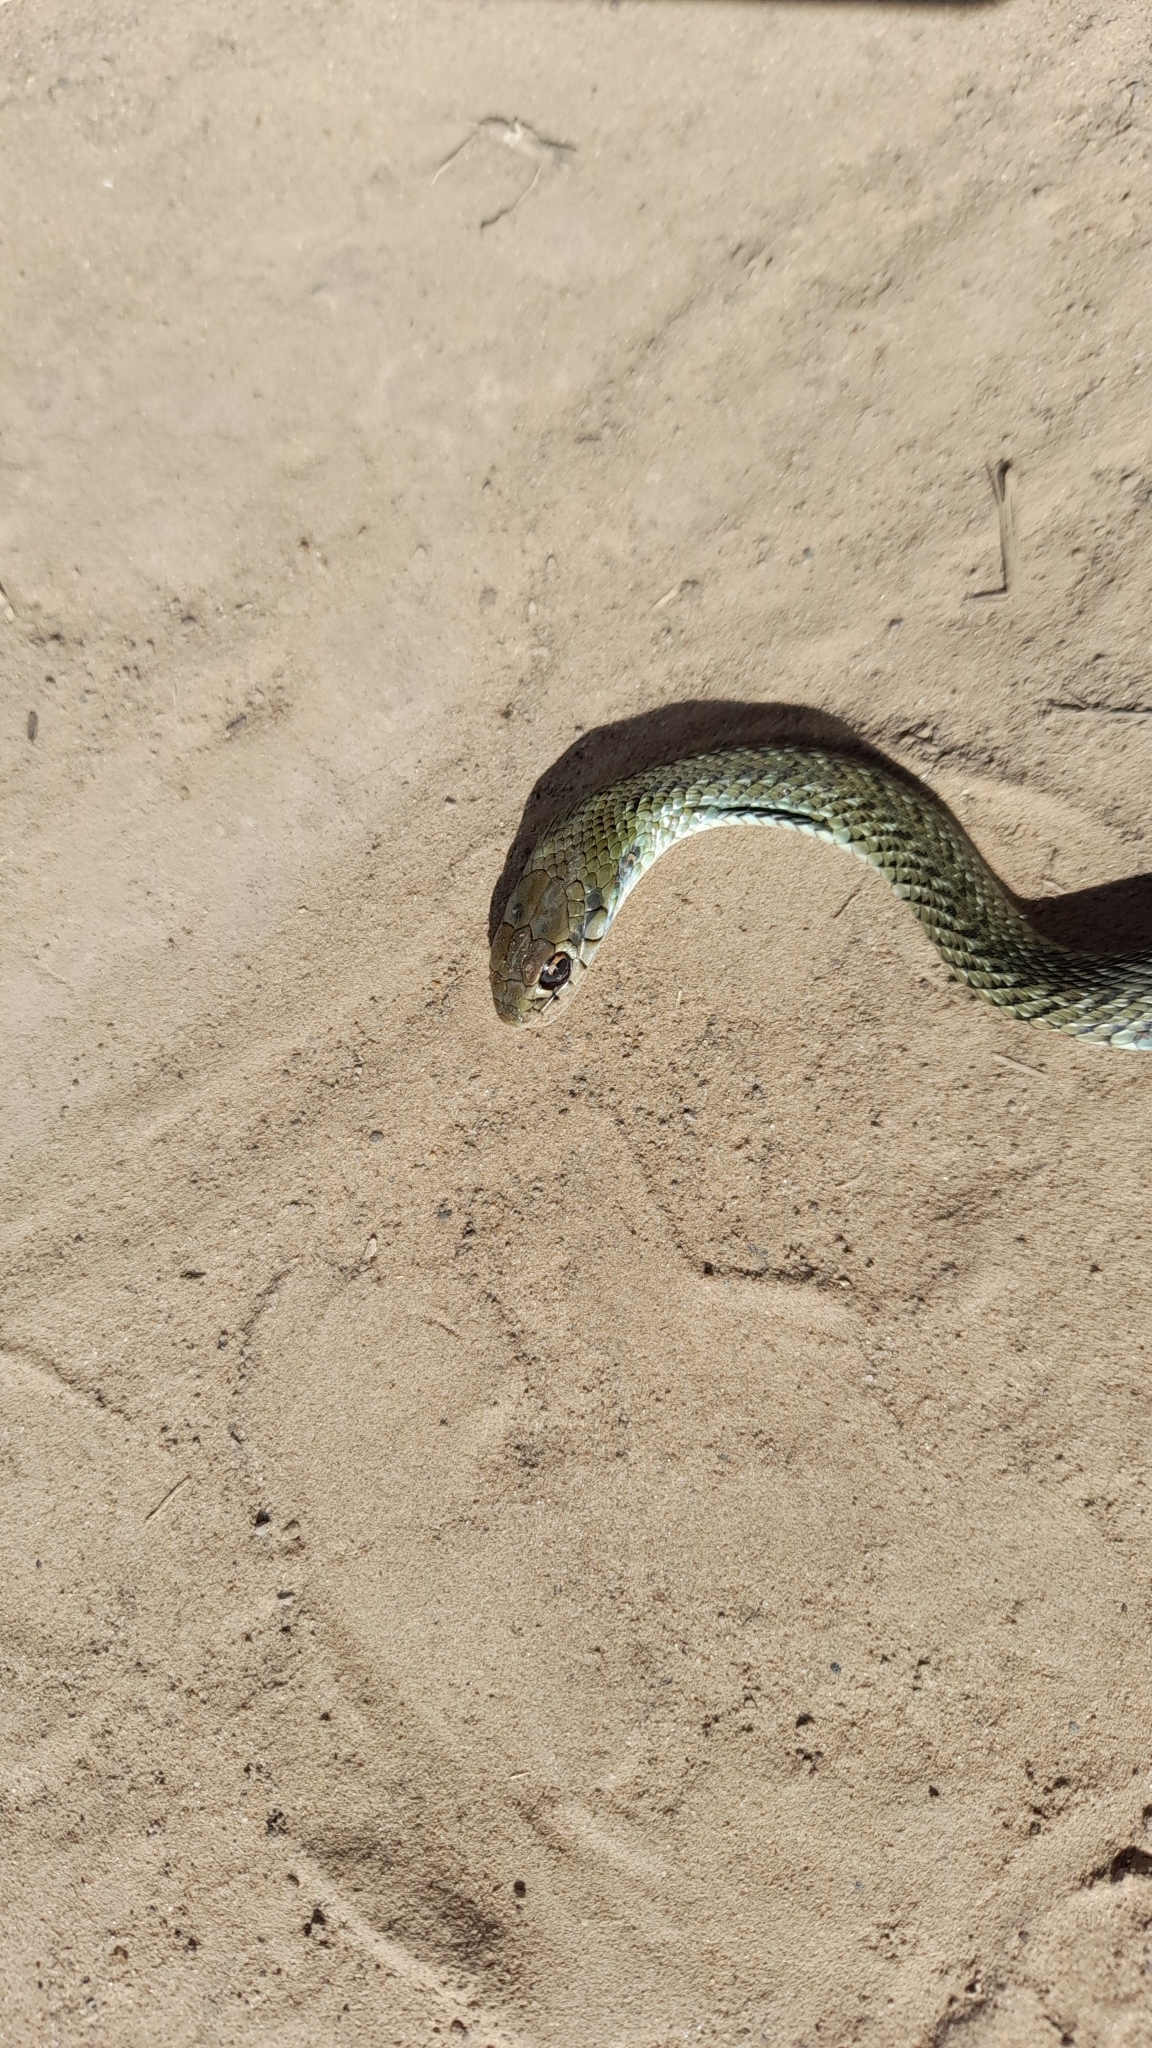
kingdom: Animalia
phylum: Chordata
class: Squamata
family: Colubridae
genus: Philodryas
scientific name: Philodryas patagoniensis
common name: Patagonia green racer
